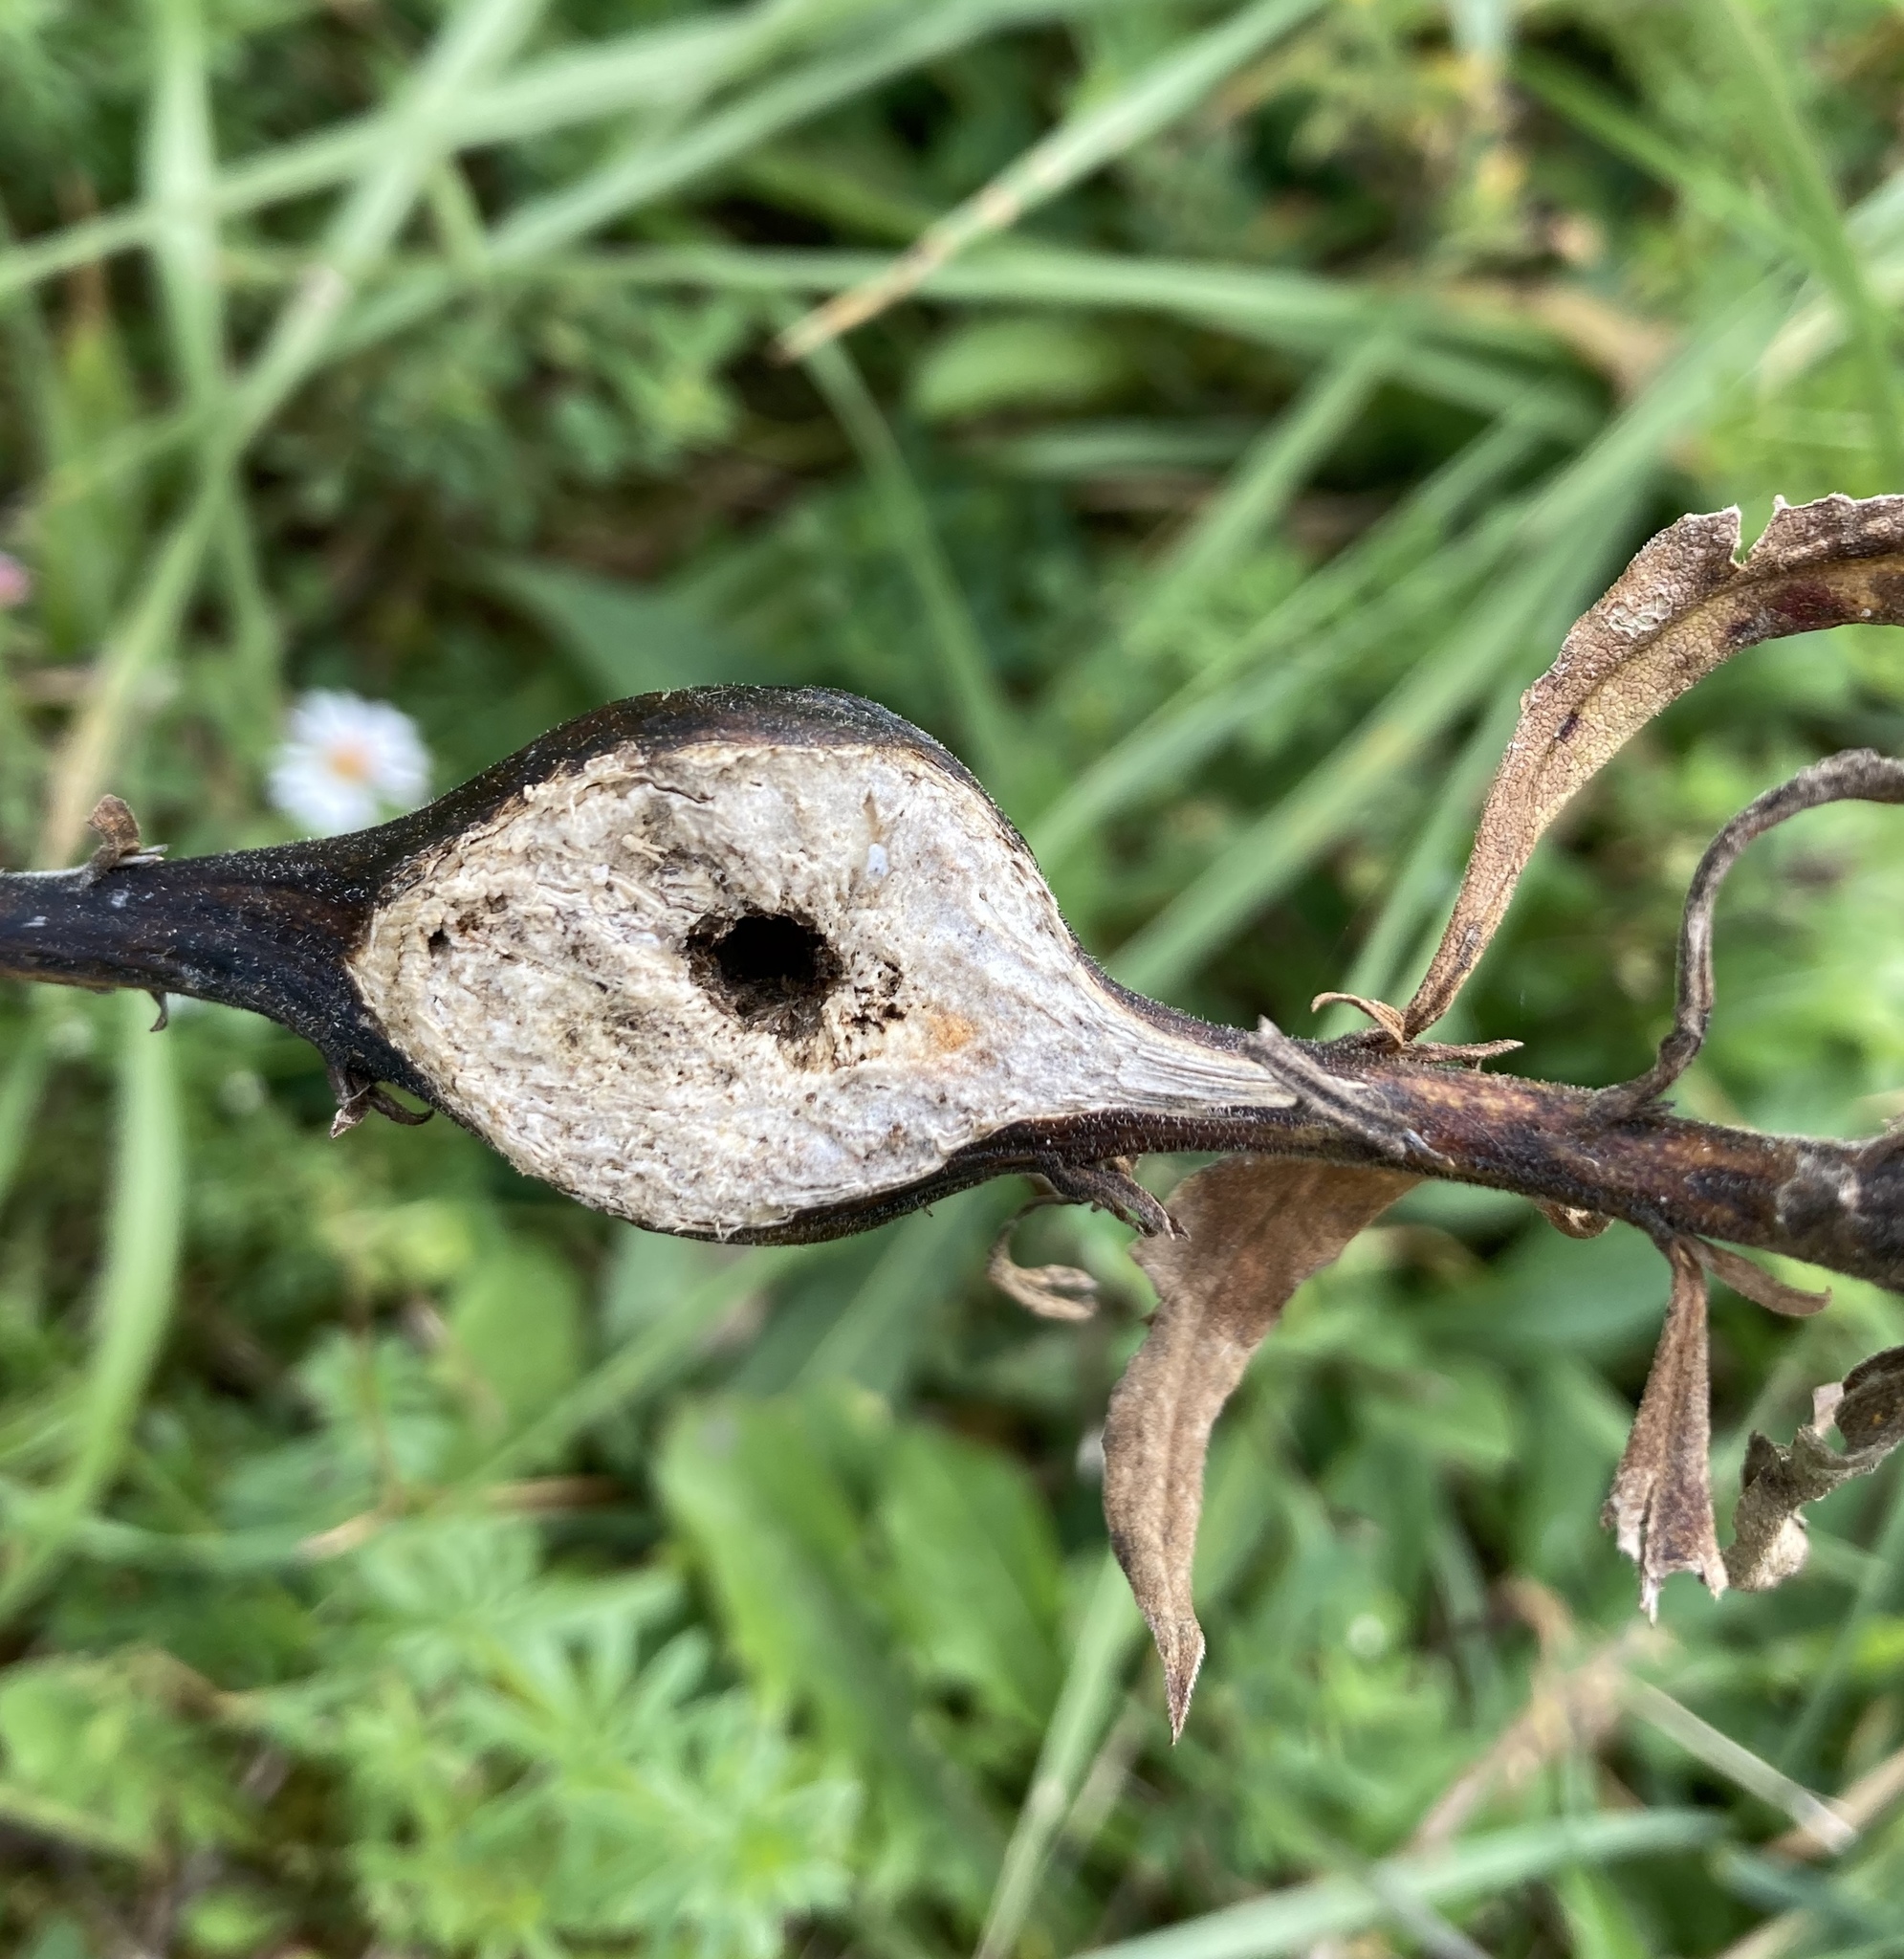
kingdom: Animalia
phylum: Arthropoda
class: Insecta
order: Diptera
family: Tephritidae
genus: Eurosta
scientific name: Eurosta solidaginis
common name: Goldenrod gall fly
